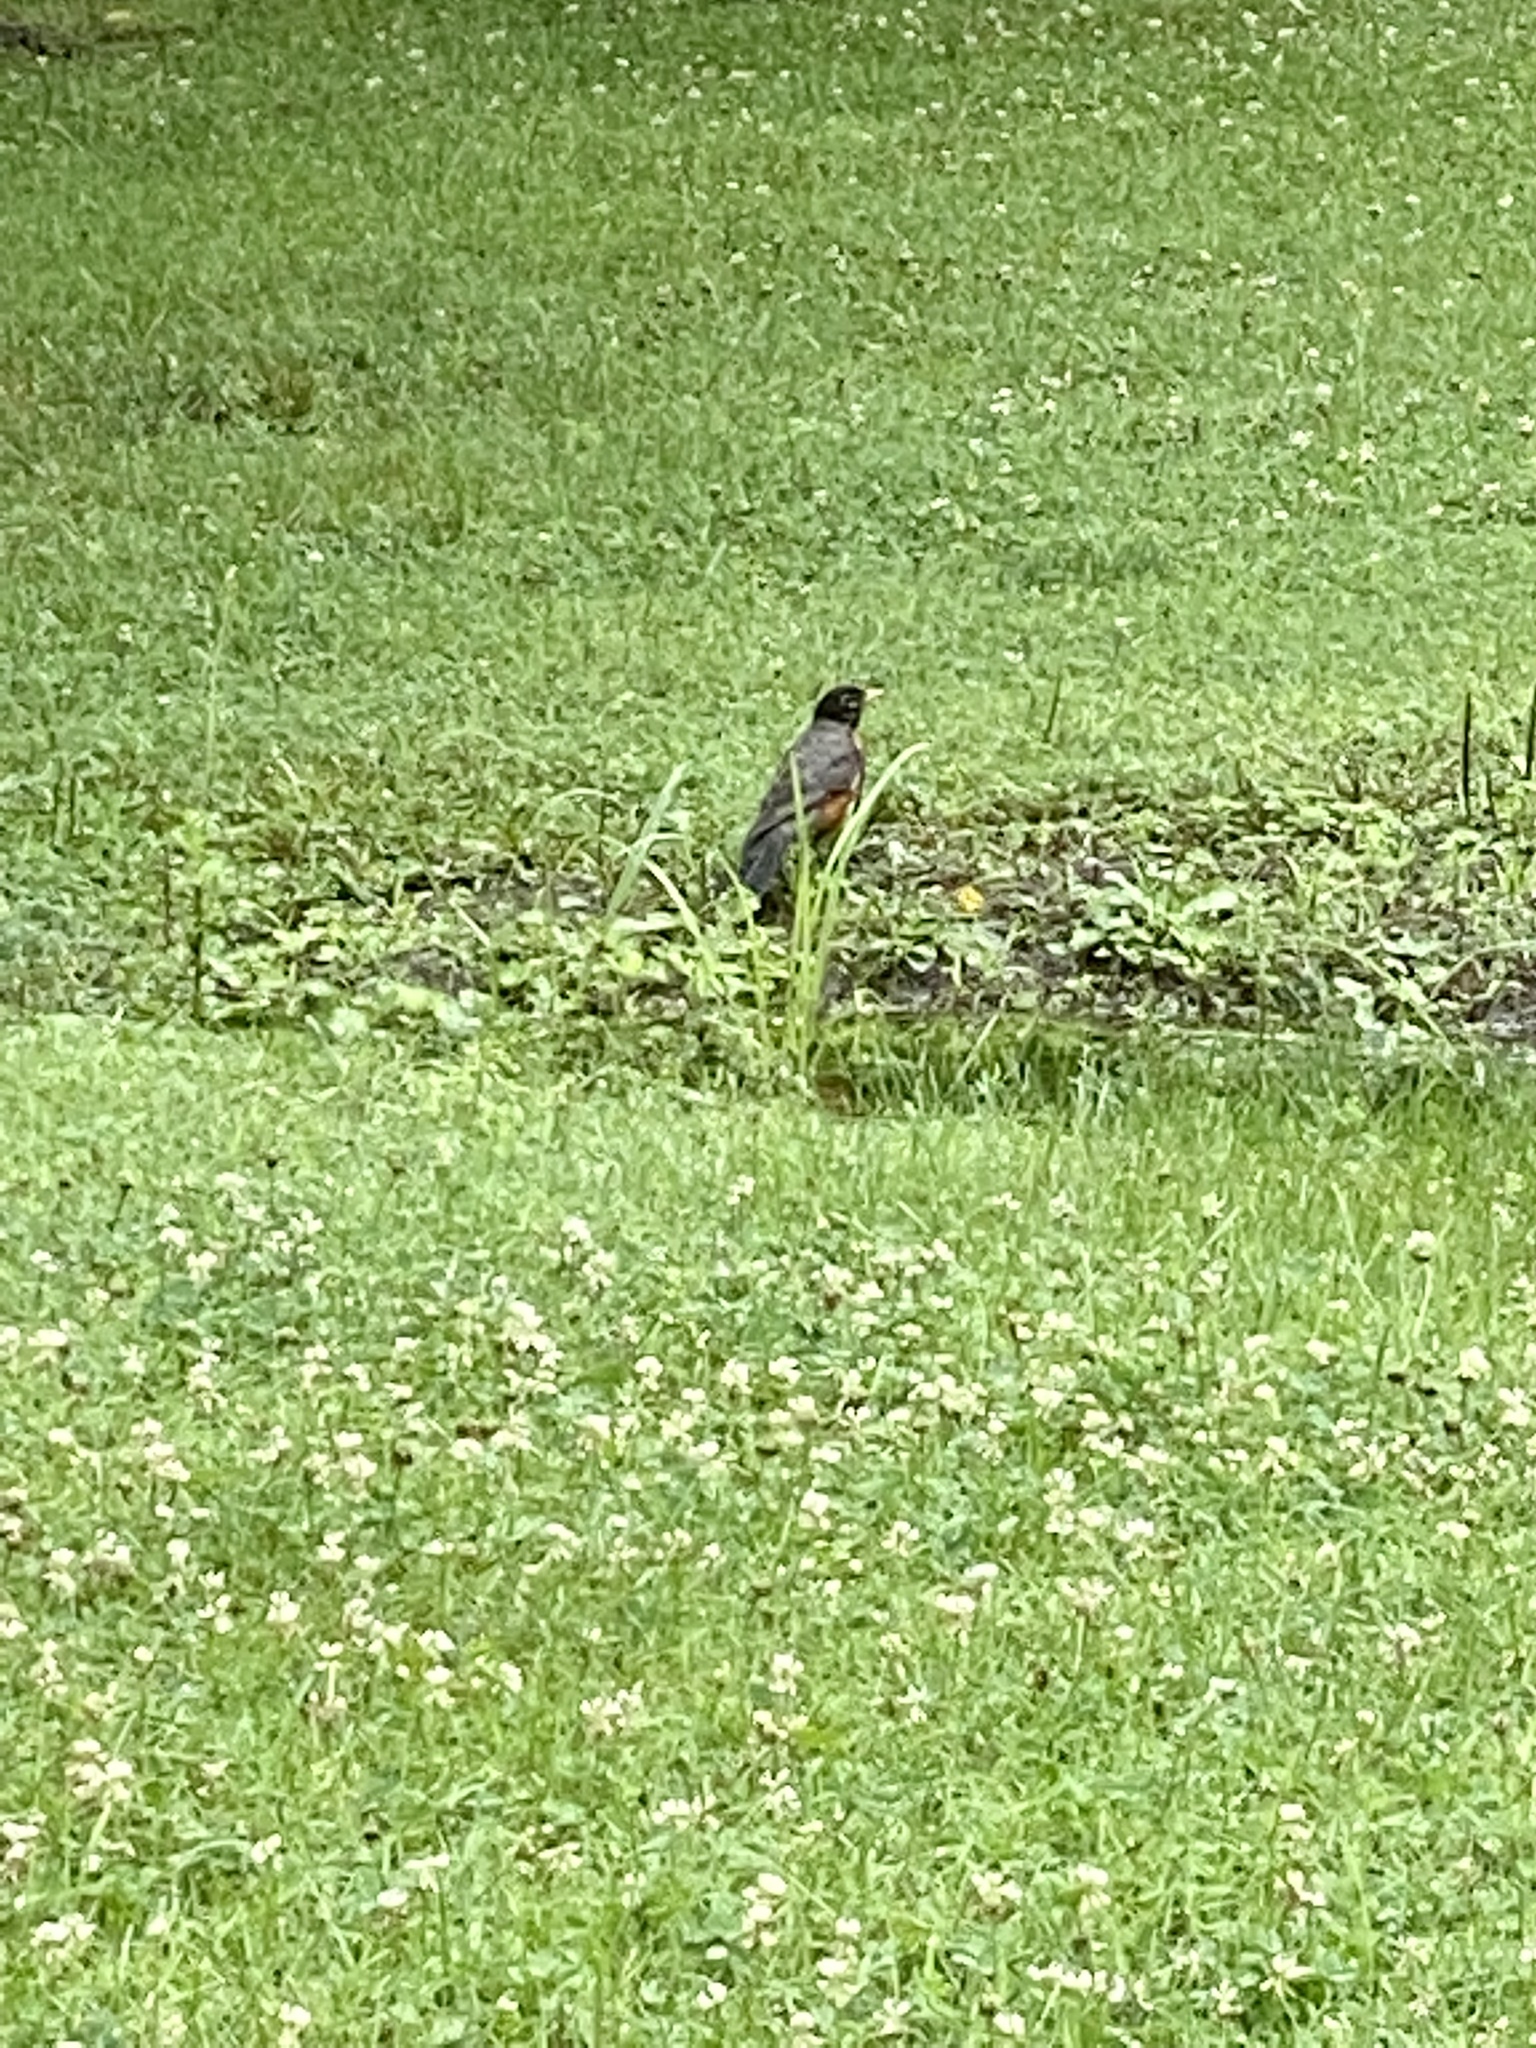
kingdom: Animalia
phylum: Chordata
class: Aves
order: Passeriformes
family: Turdidae
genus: Turdus
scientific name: Turdus migratorius
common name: American robin
